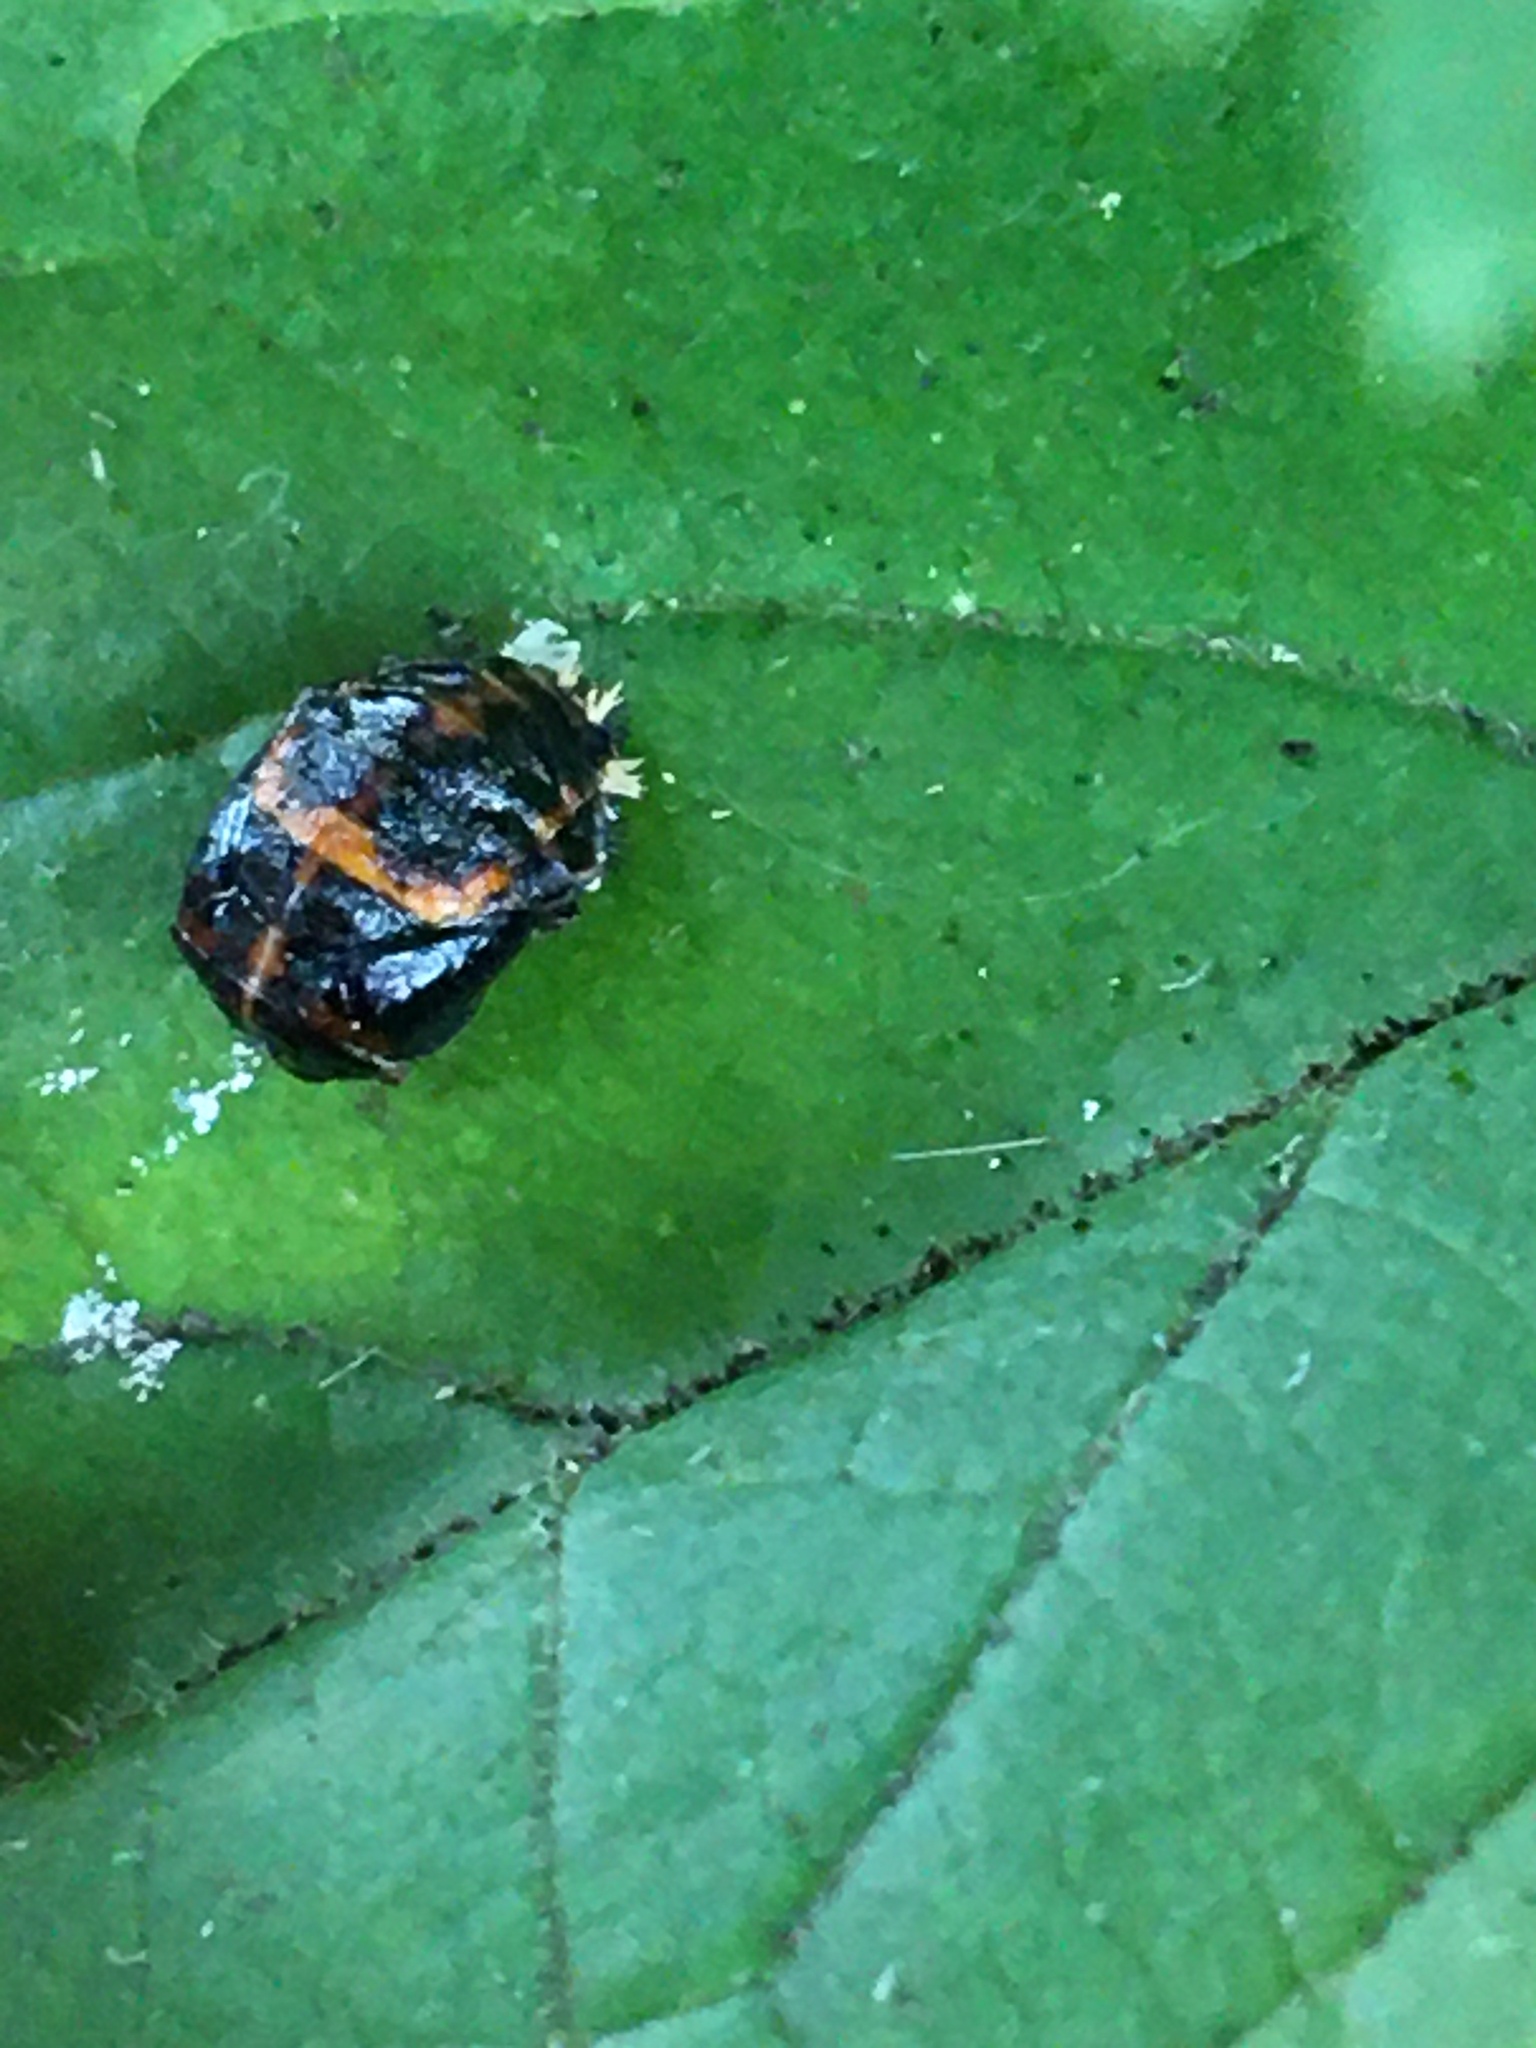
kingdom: Animalia
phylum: Arthropoda
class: Insecta
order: Coleoptera
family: Coccinellidae
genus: Harmonia
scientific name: Harmonia axyridis
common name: Harlequin ladybird
